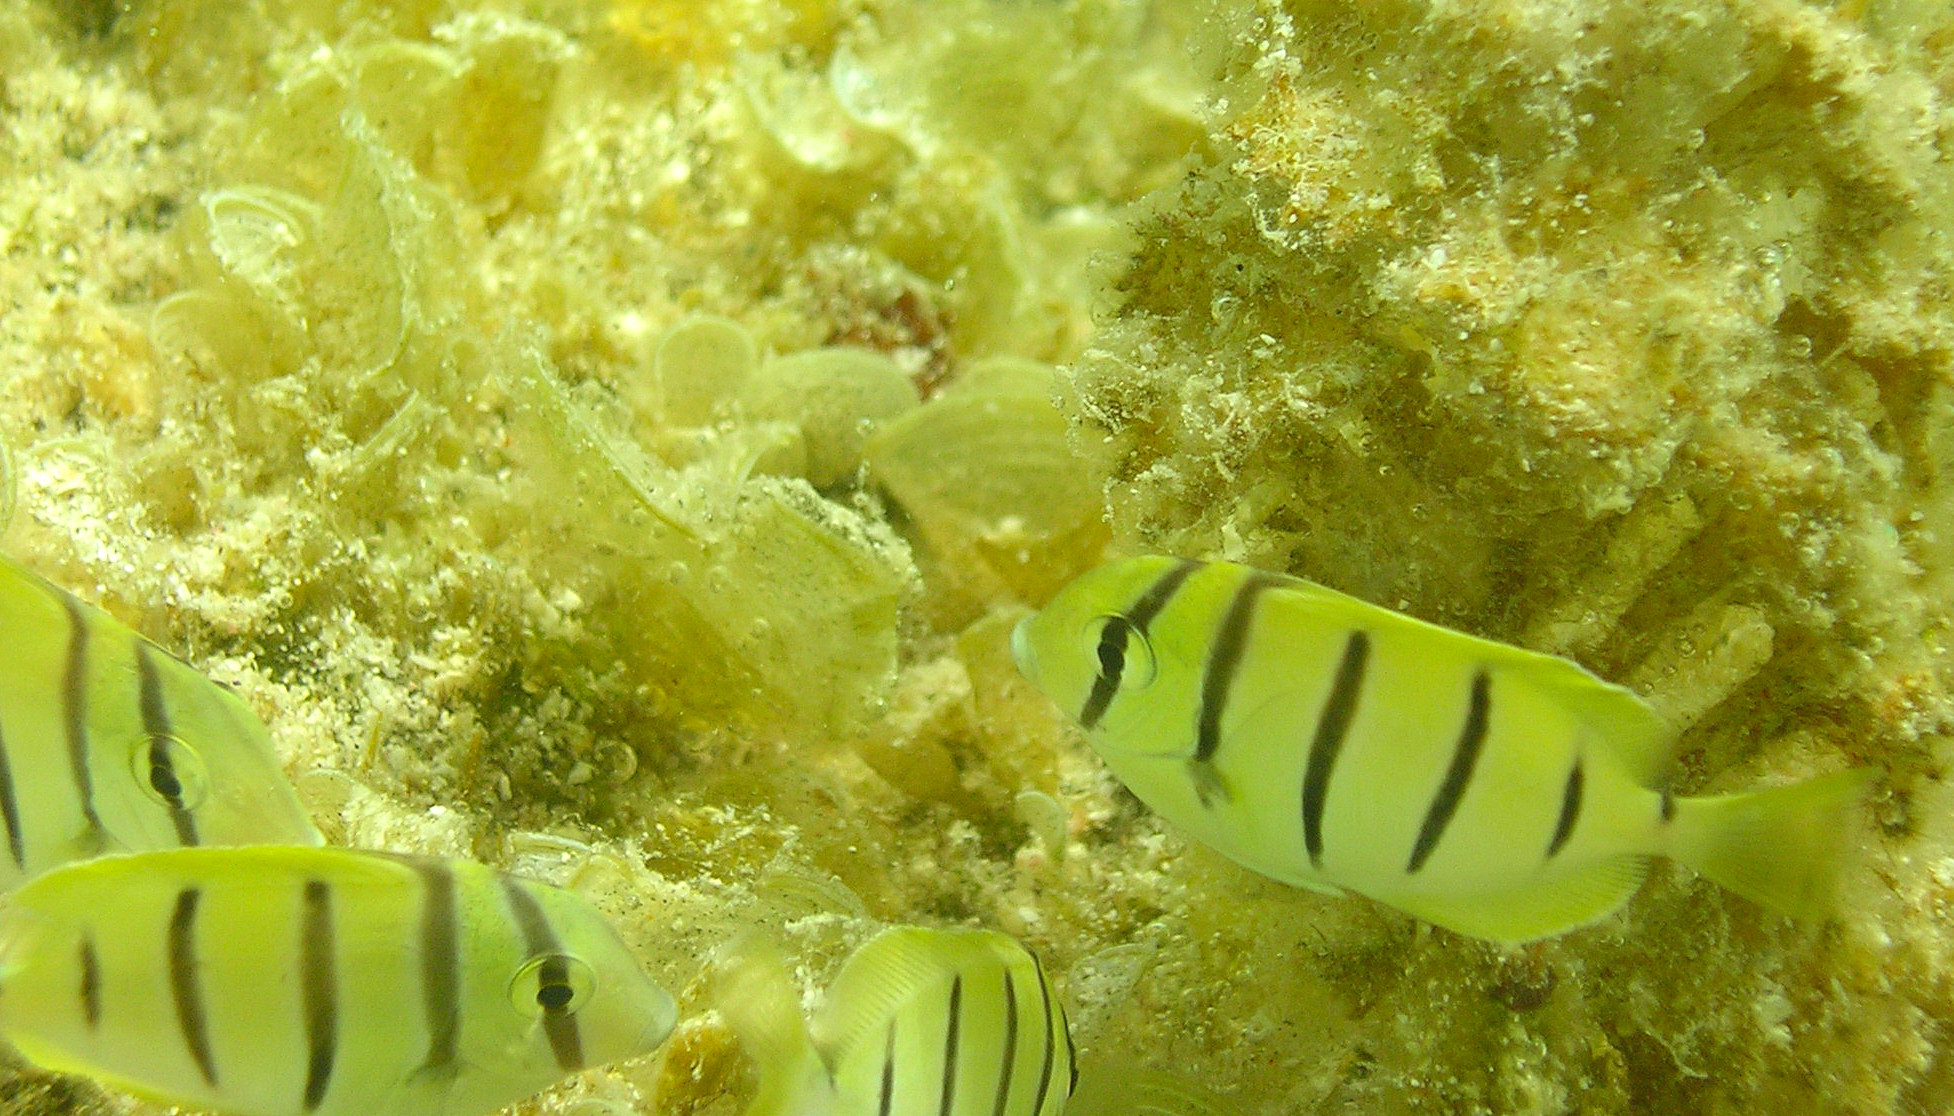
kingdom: Animalia
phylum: Chordata
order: Perciformes
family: Acanthuridae
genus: Acanthurus
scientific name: Acanthurus triostegus
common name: Convict surgeonfish
